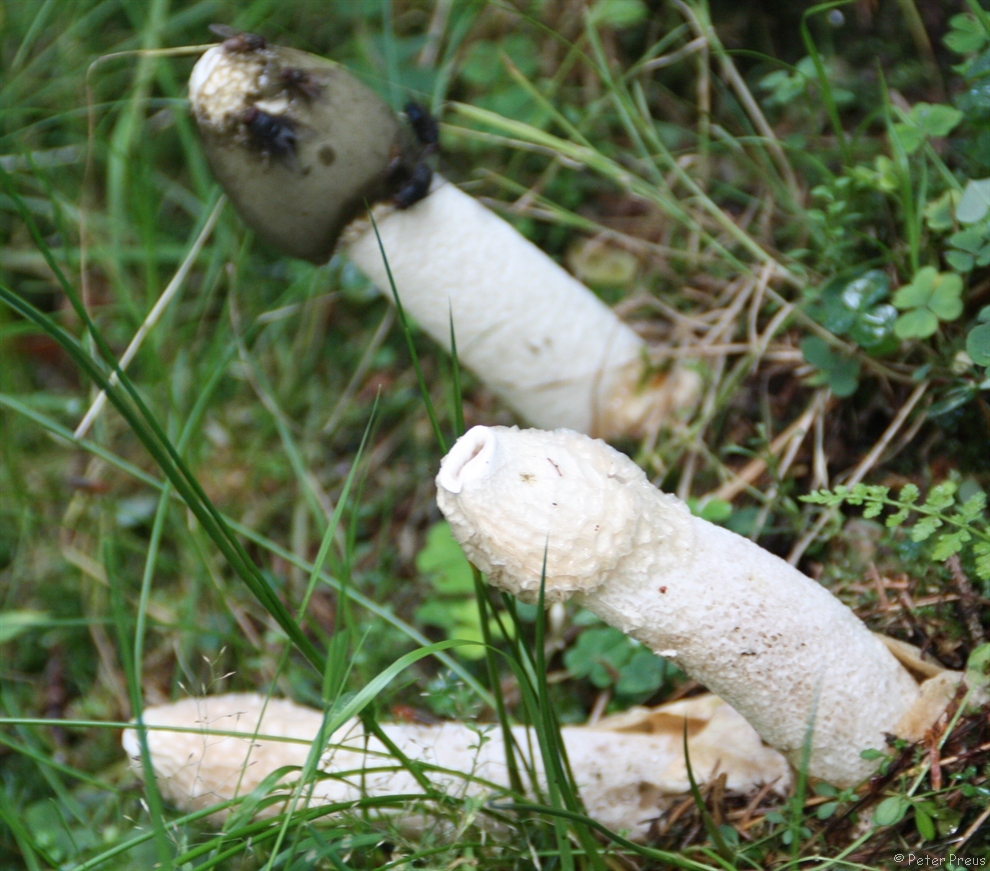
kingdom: Fungi
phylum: Basidiomycota
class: Agaricomycetes
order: Phallales
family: Phallaceae
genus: Phallus
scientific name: Phallus impudicus
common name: Common stinkhorn
